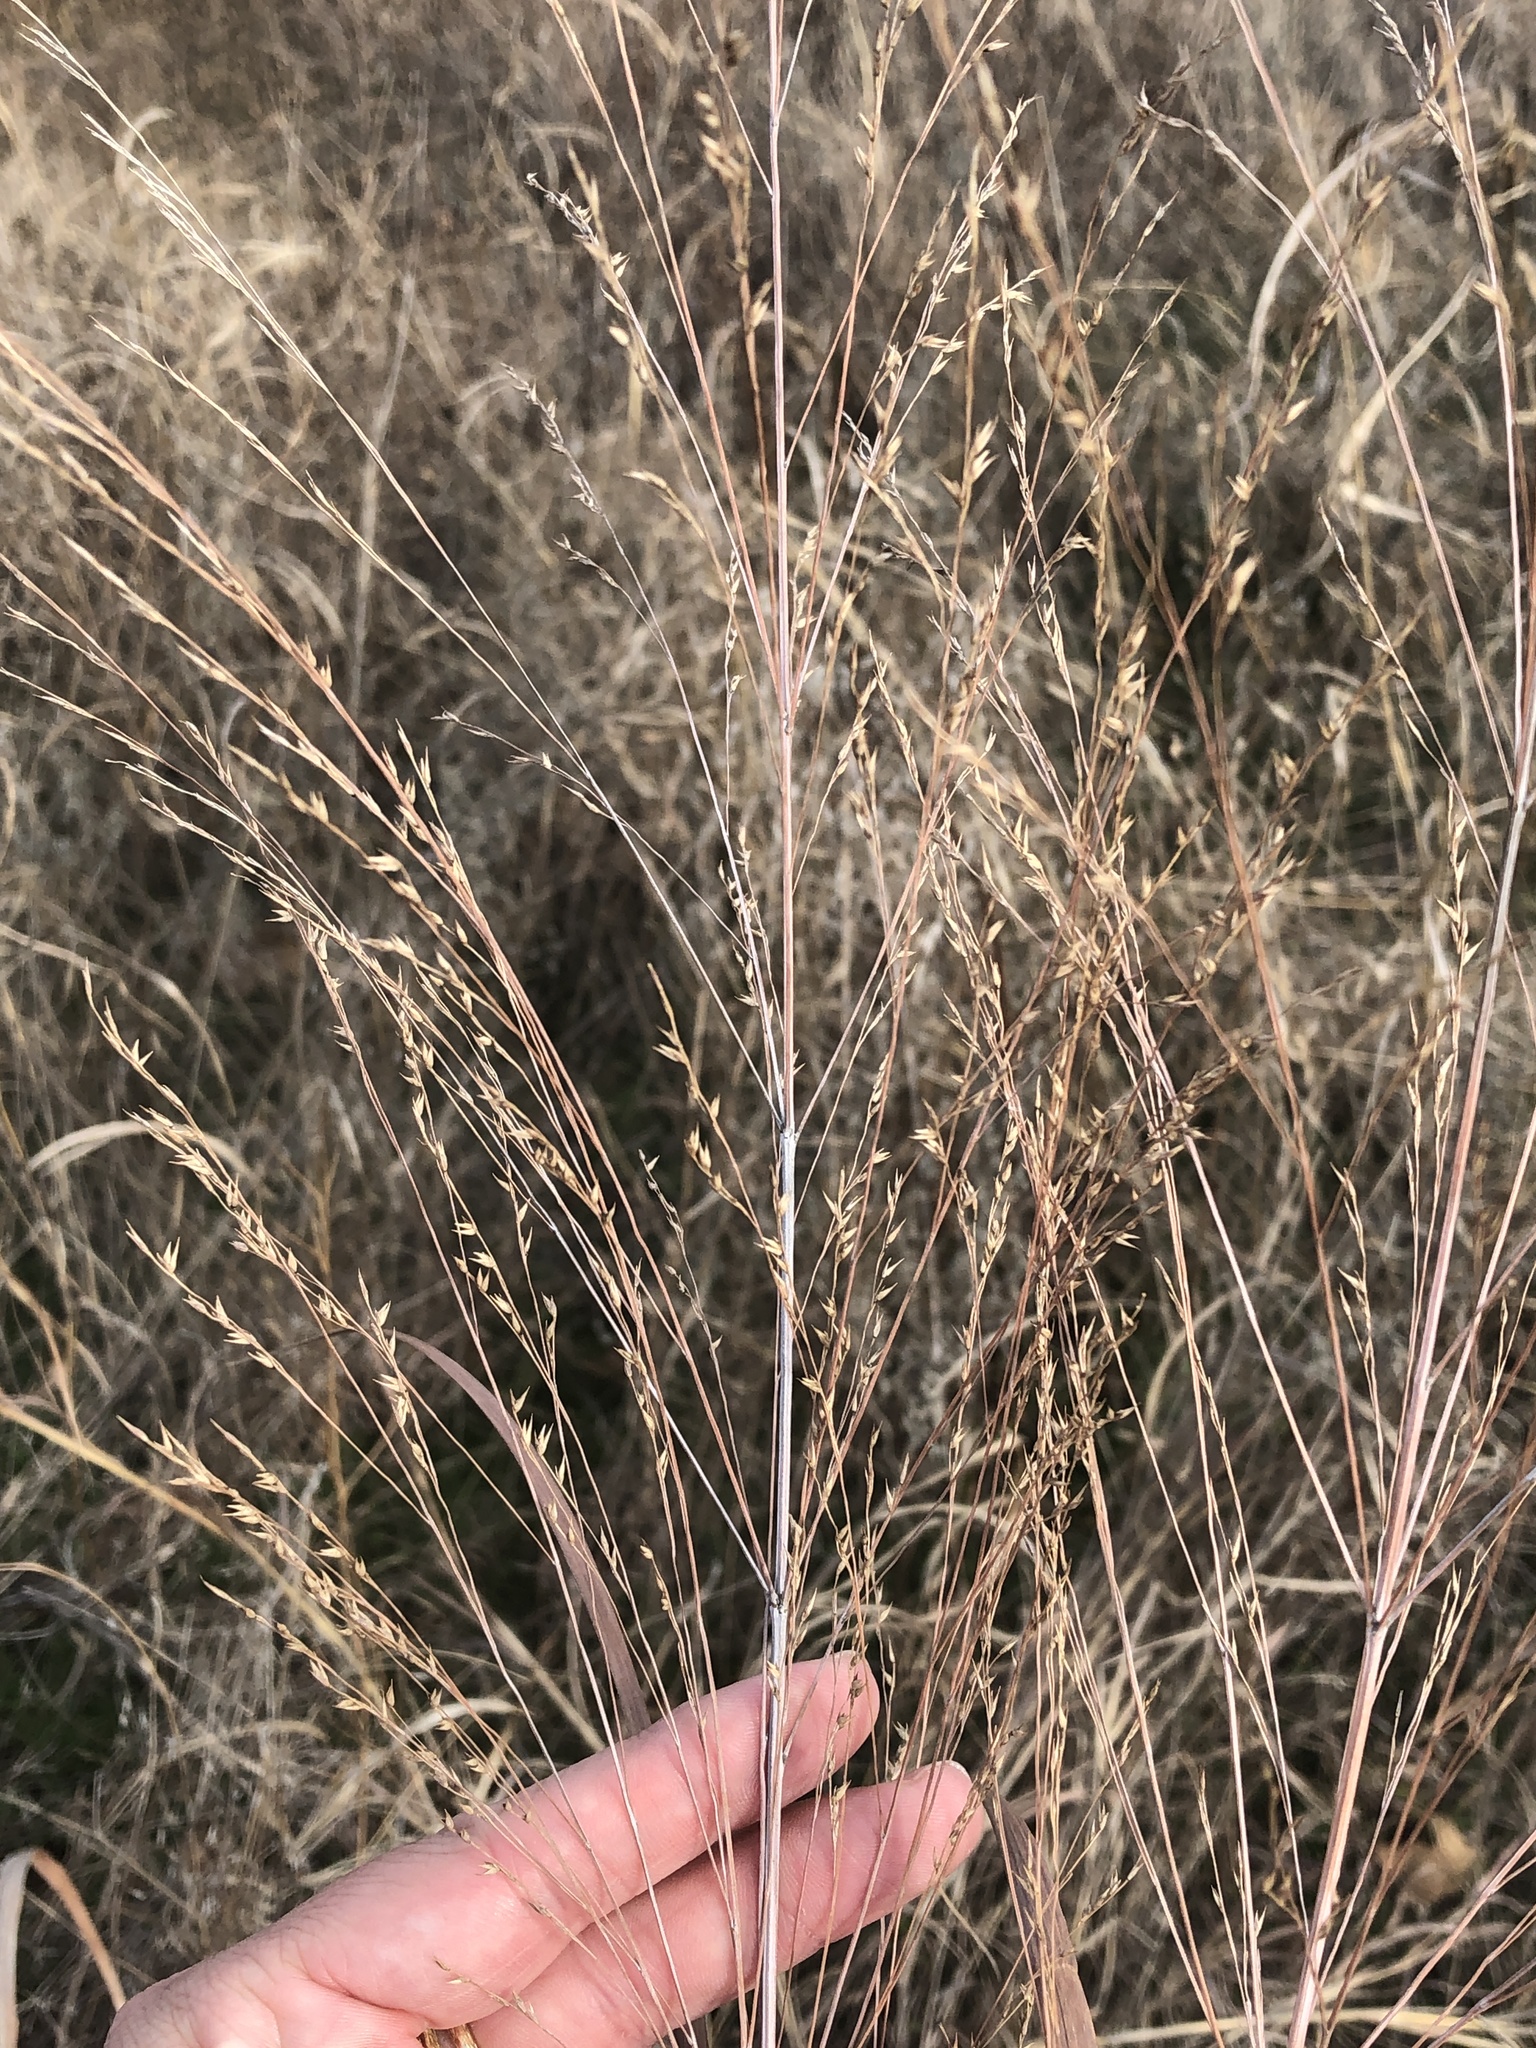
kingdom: Plantae
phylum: Tracheophyta
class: Liliopsida
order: Poales
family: Poaceae
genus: Panicum
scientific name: Panicum virgatum
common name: Switchgrass
